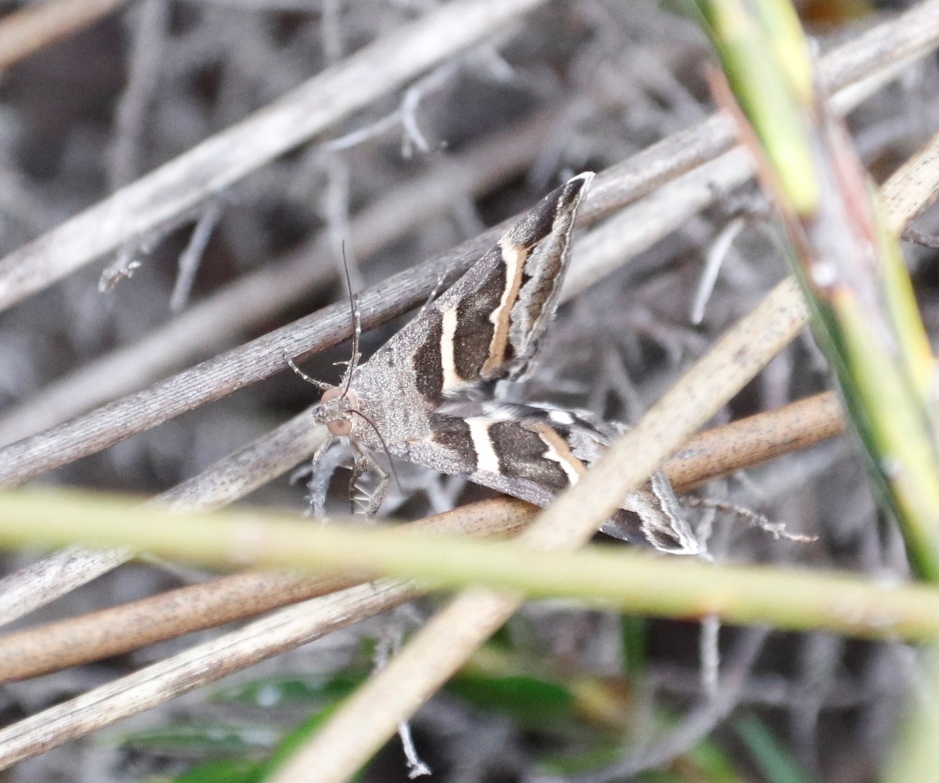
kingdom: Animalia
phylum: Arthropoda
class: Insecta
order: Lepidoptera
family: Erebidae
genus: Grammodes
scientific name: Grammodes stolida
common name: Geometrician
